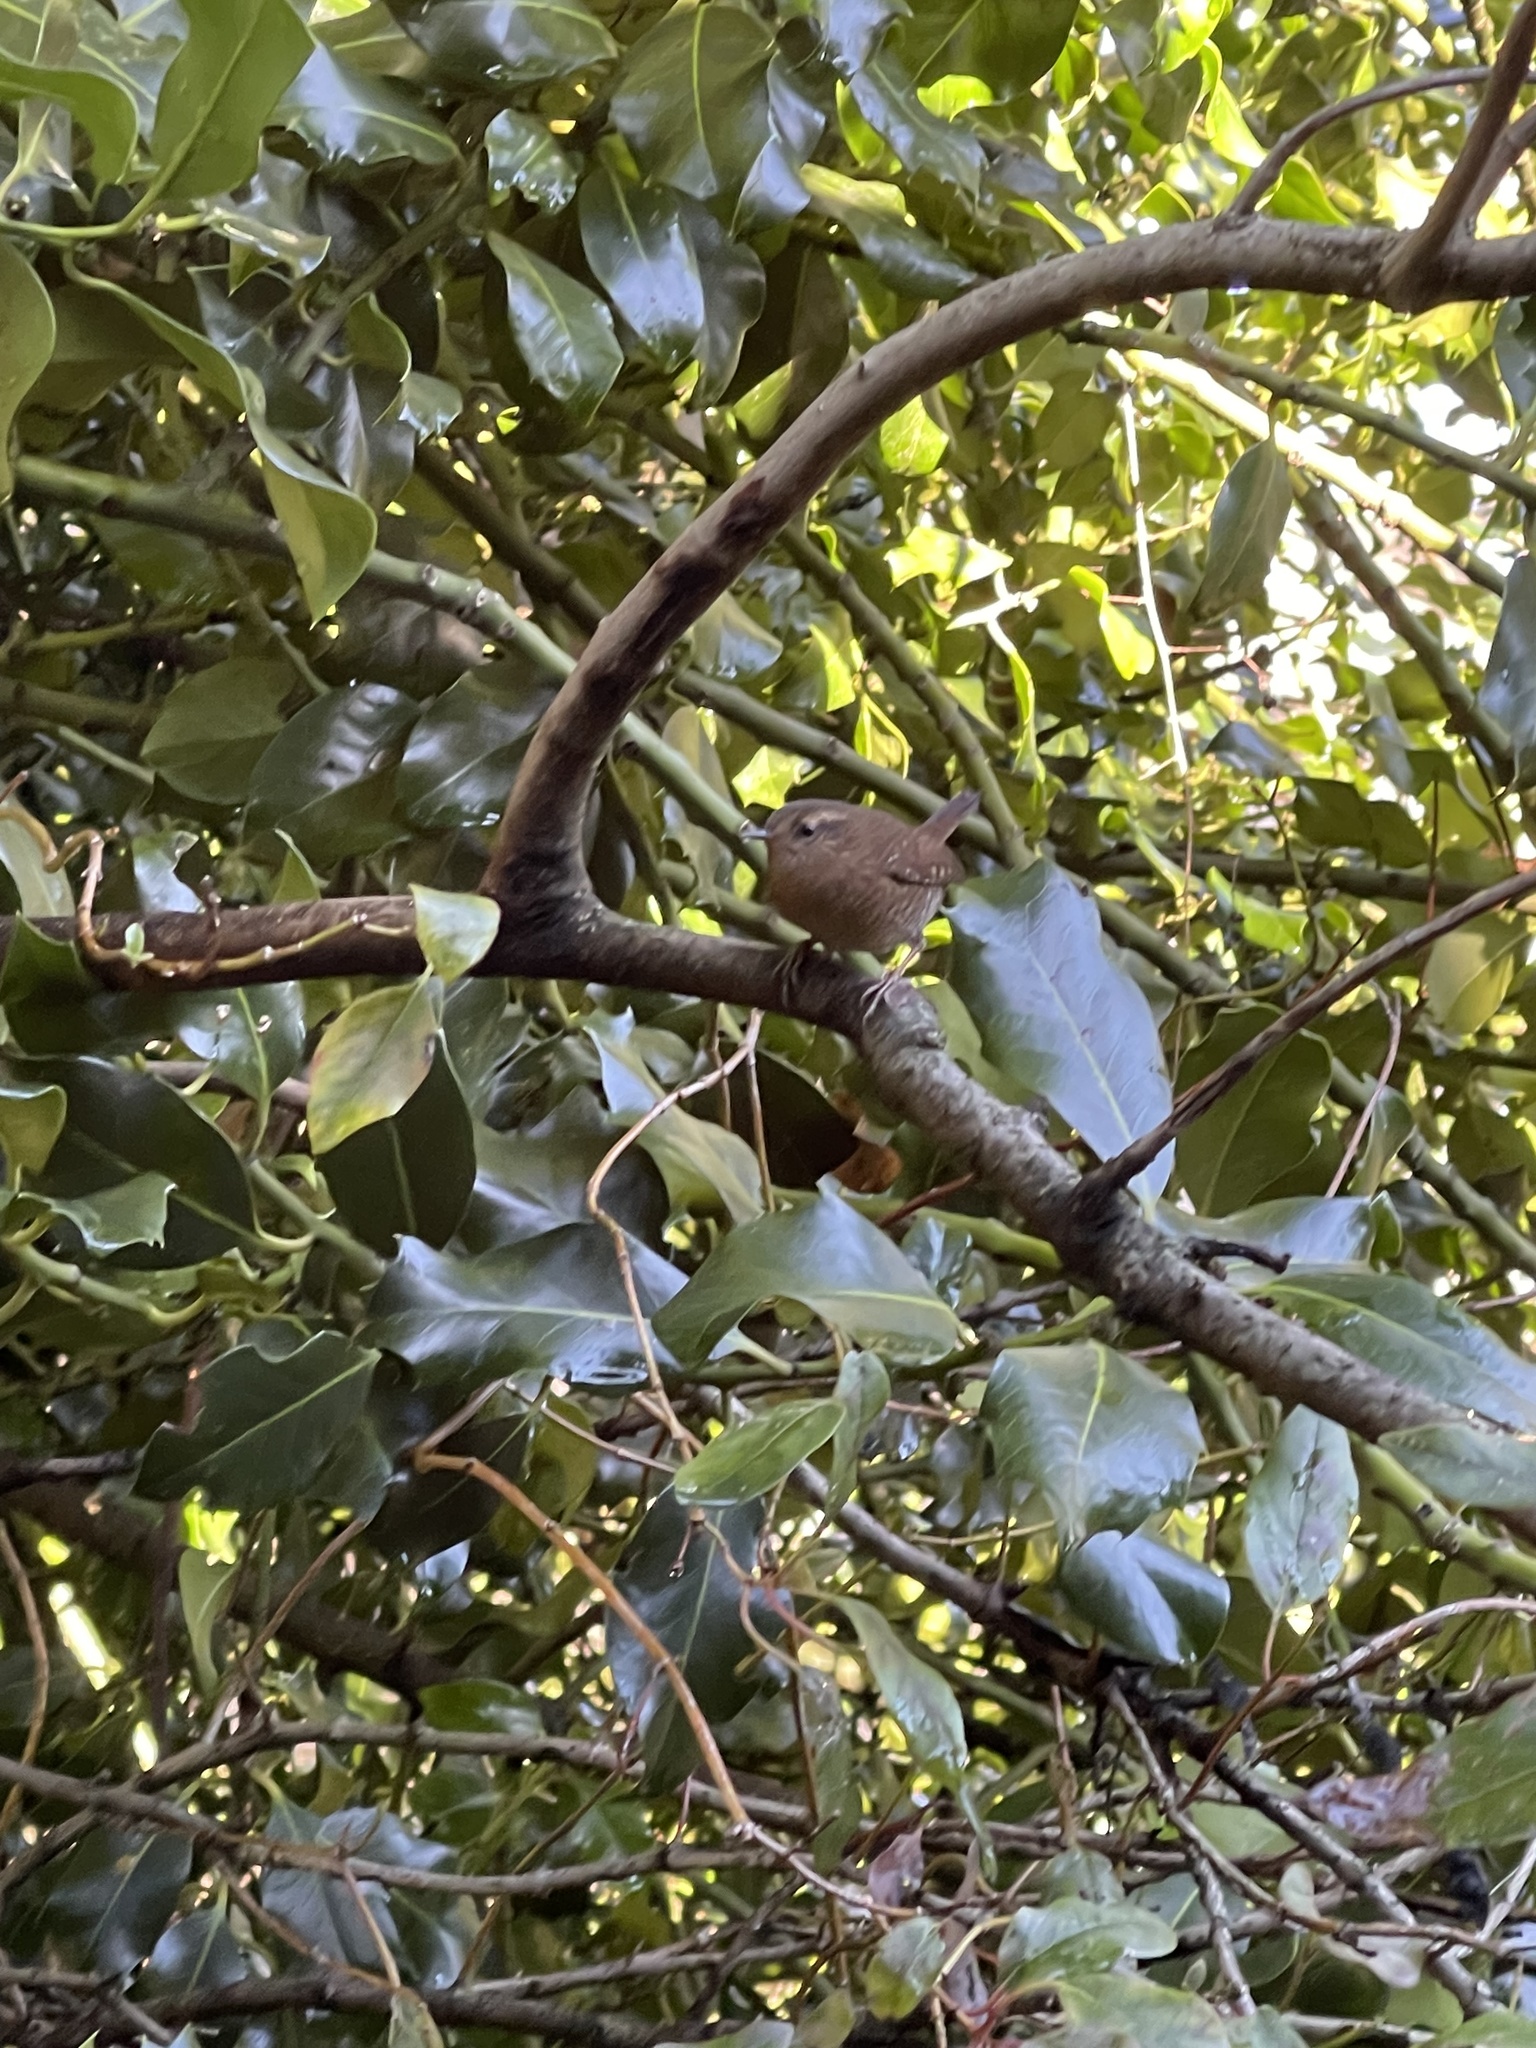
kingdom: Animalia
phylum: Chordata
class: Aves
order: Passeriformes
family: Troglodytidae
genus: Troglodytes
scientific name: Troglodytes pacificus
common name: Pacific wren
